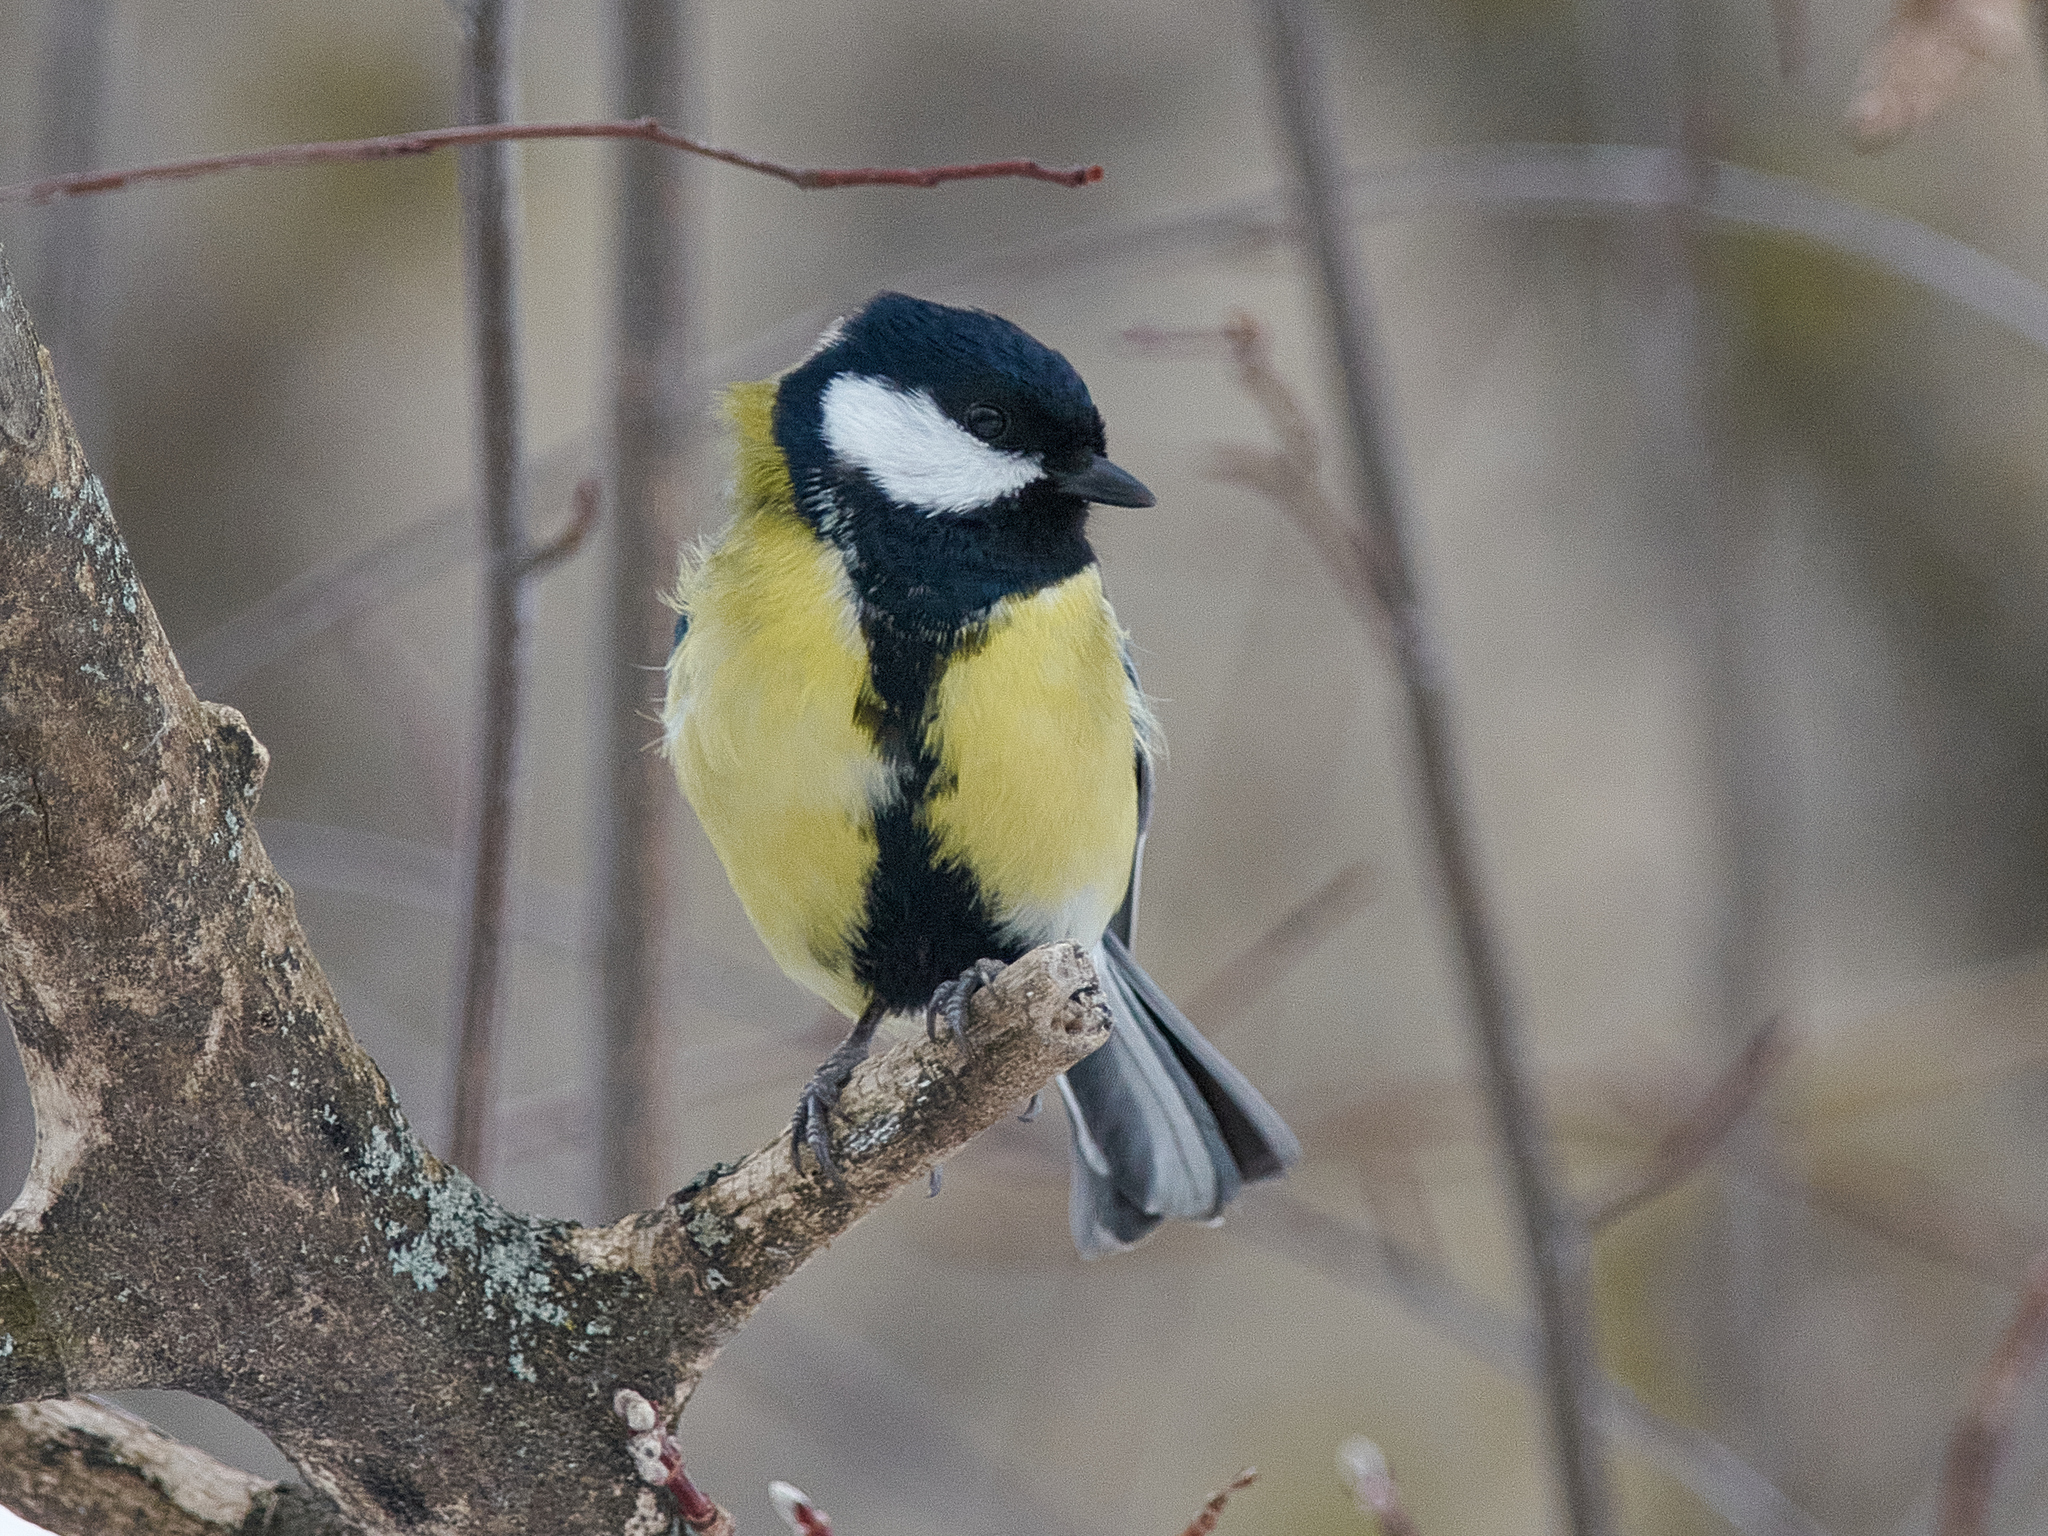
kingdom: Animalia
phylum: Chordata
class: Aves
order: Passeriformes
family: Paridae
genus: Parus
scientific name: Parus major
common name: Great tit
